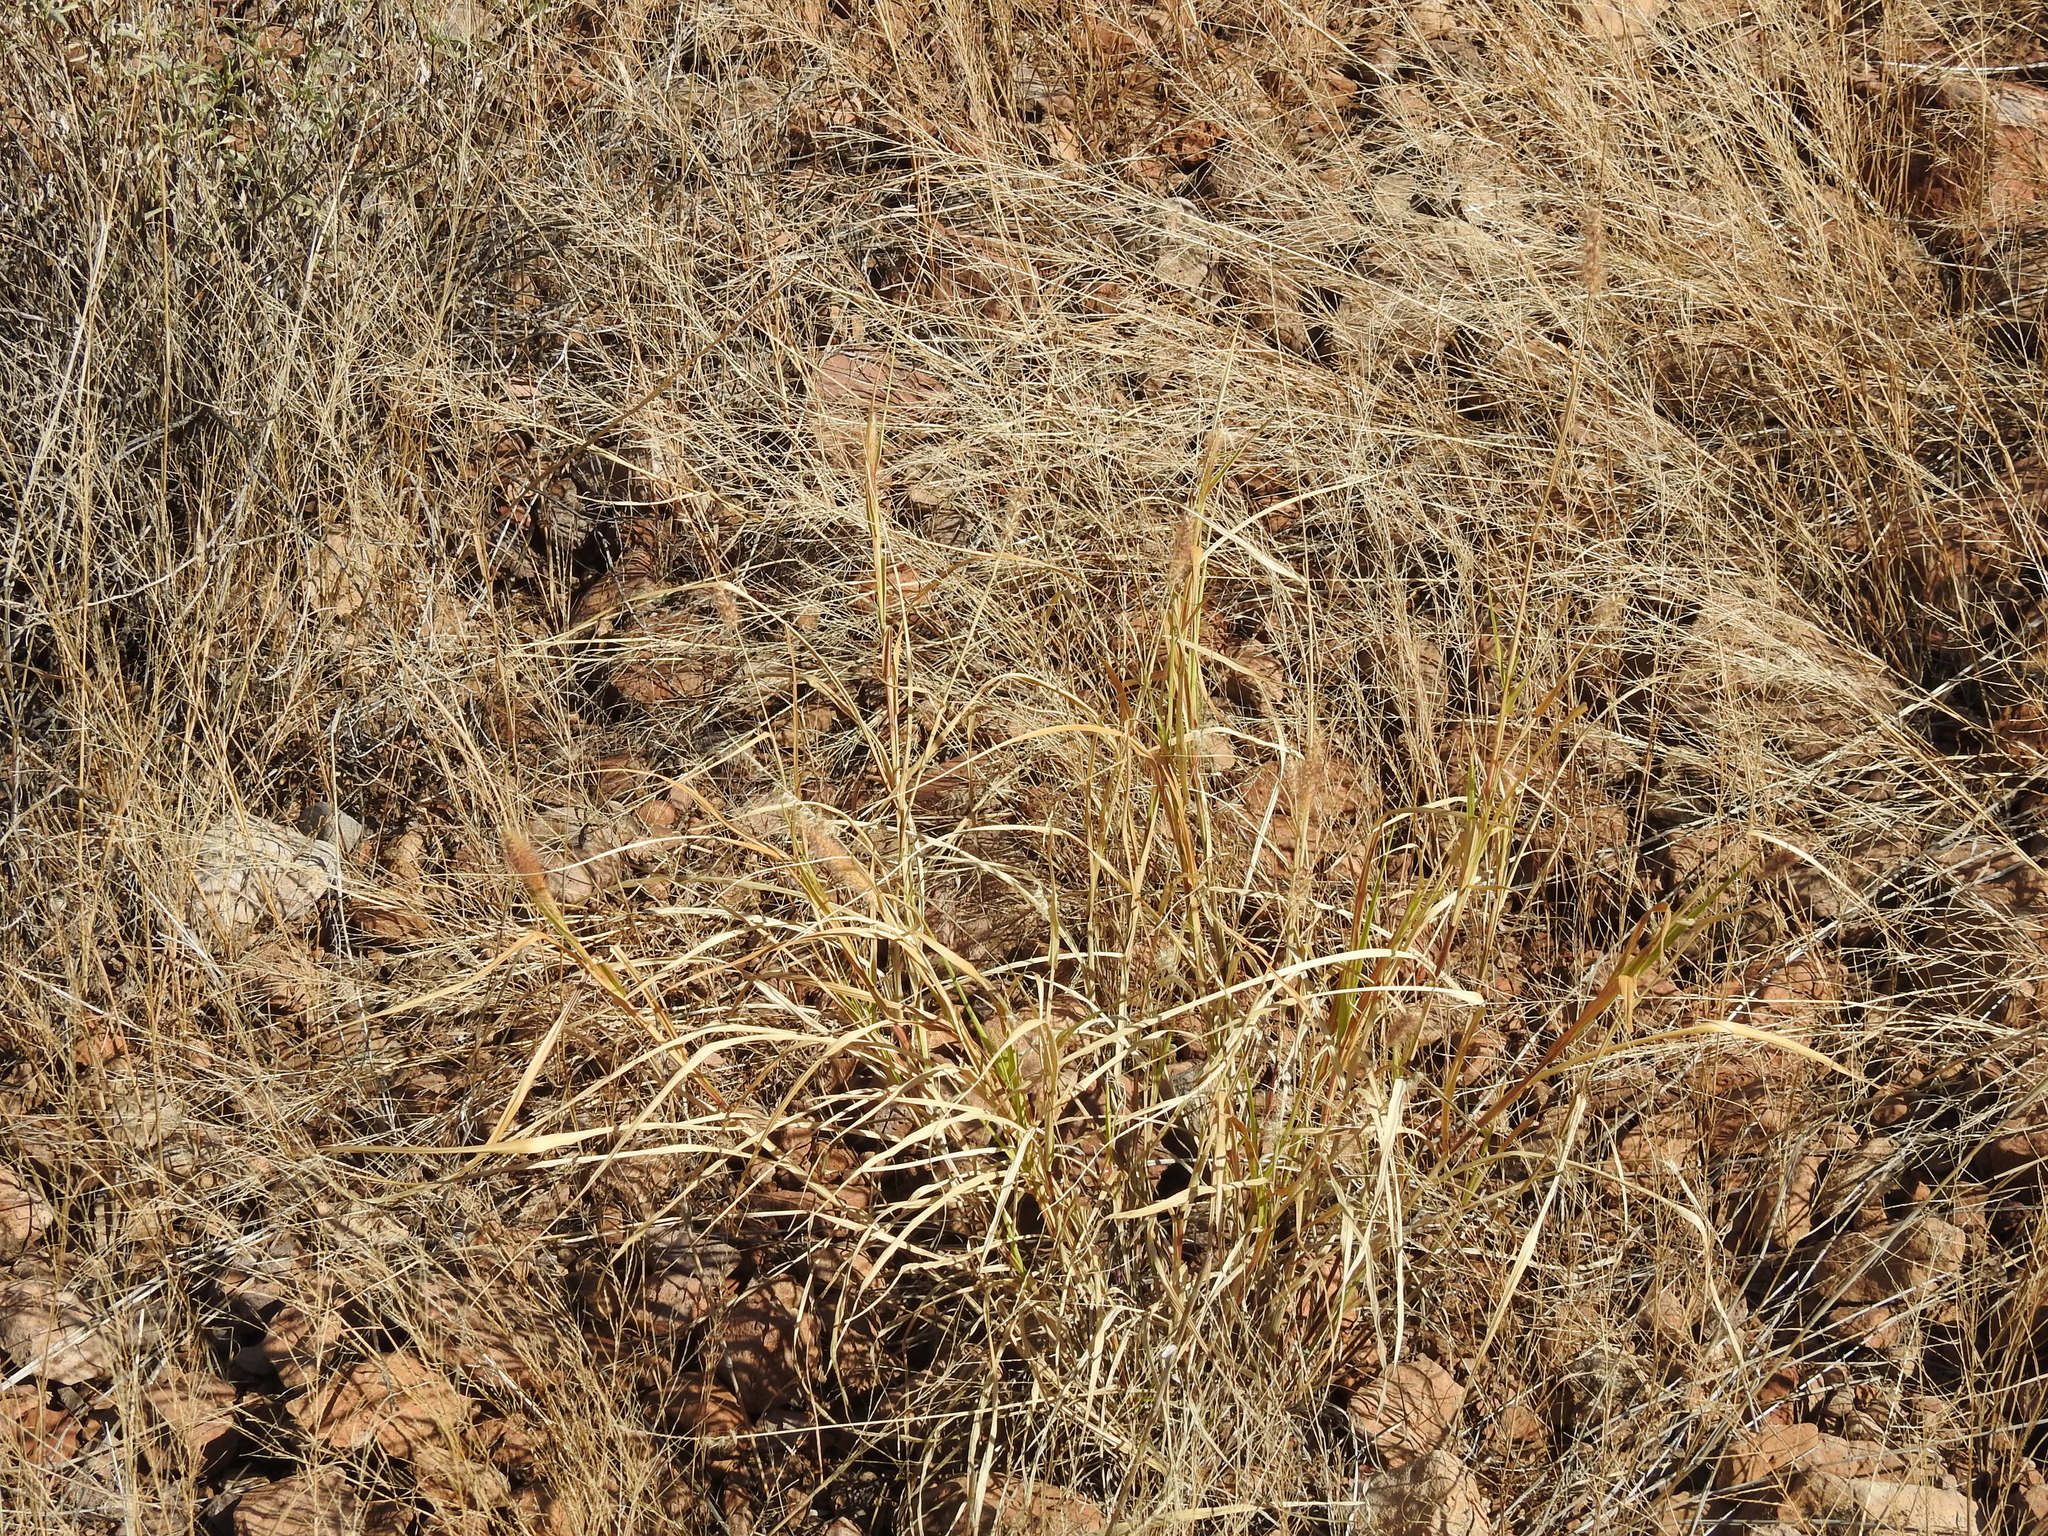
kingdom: Plantae
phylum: Tracheophyta
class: Liliopsida
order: Poales
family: Poaceae
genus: Cenchrus
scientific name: Cenchrus ciliaris
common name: Buffelgrass
